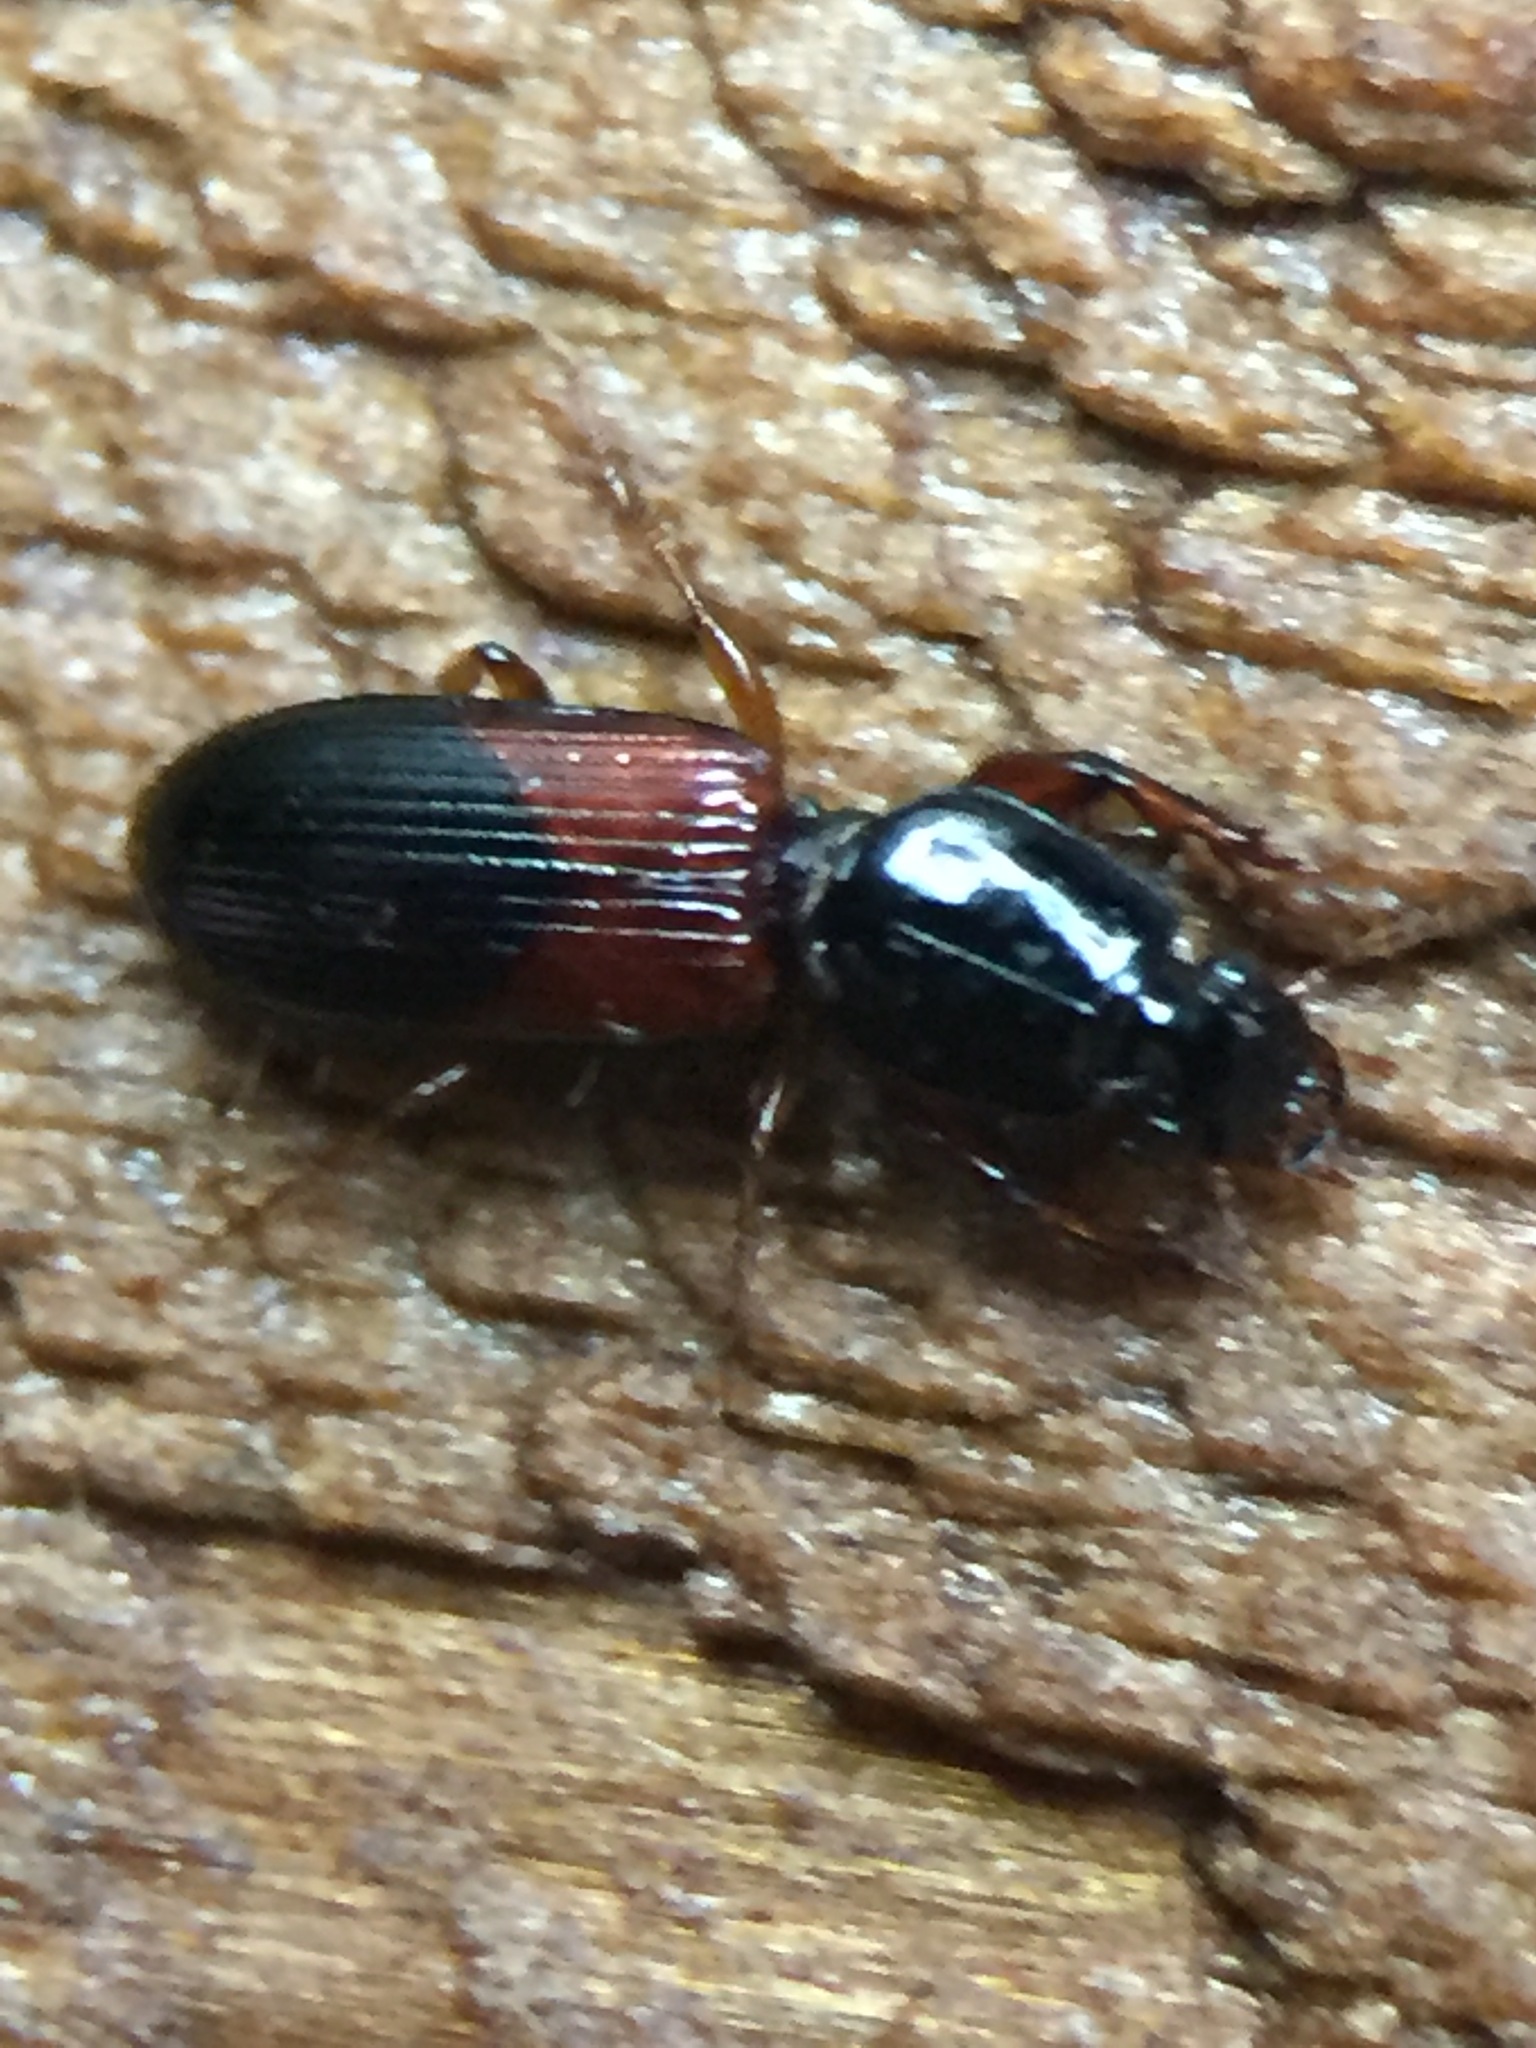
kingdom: Animalia
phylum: Arthropoda
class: Insecta
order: Coleoptera
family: Carabidae
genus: Clivina
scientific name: Clivina basalis
